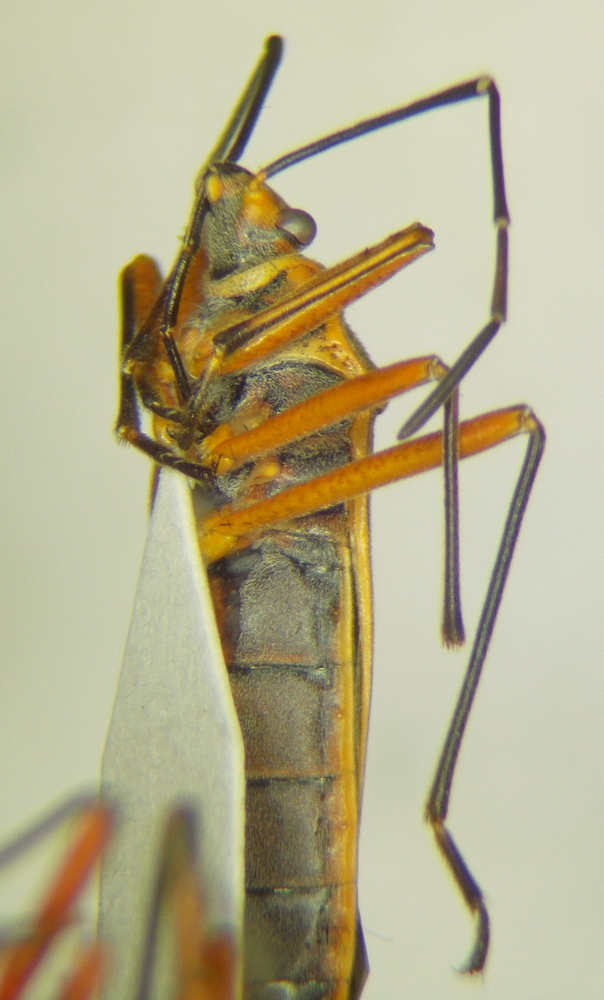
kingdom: Animalia
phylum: Arthropoda
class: Insecta
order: Hemiptera
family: Largidae
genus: Stenomacra
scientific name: Stenomacra marginella
